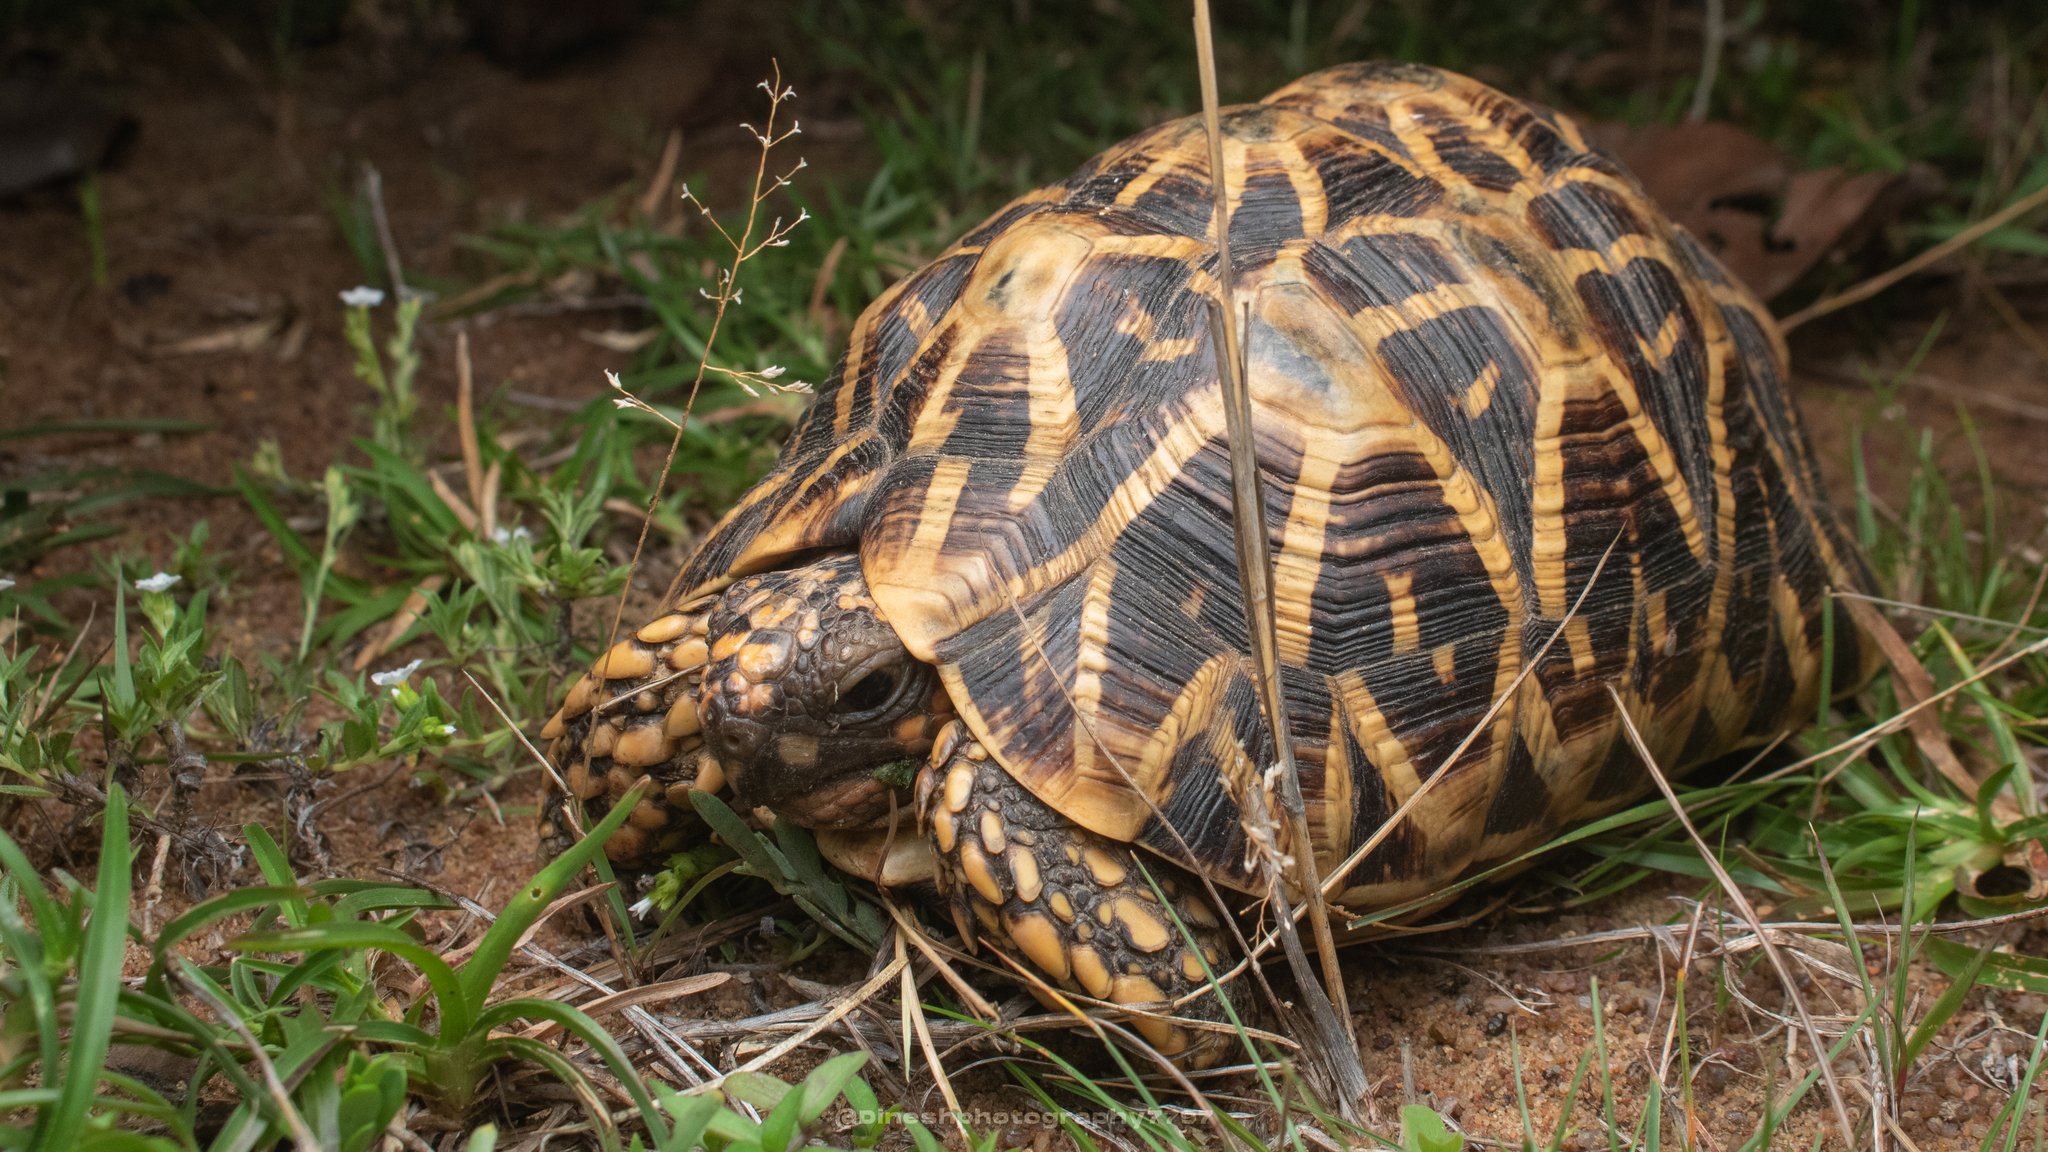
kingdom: Animalia
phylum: Chordata
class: Testudines
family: Testudinidae
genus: Geochelone
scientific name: Geochelone elegans
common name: Indian star tortoise
